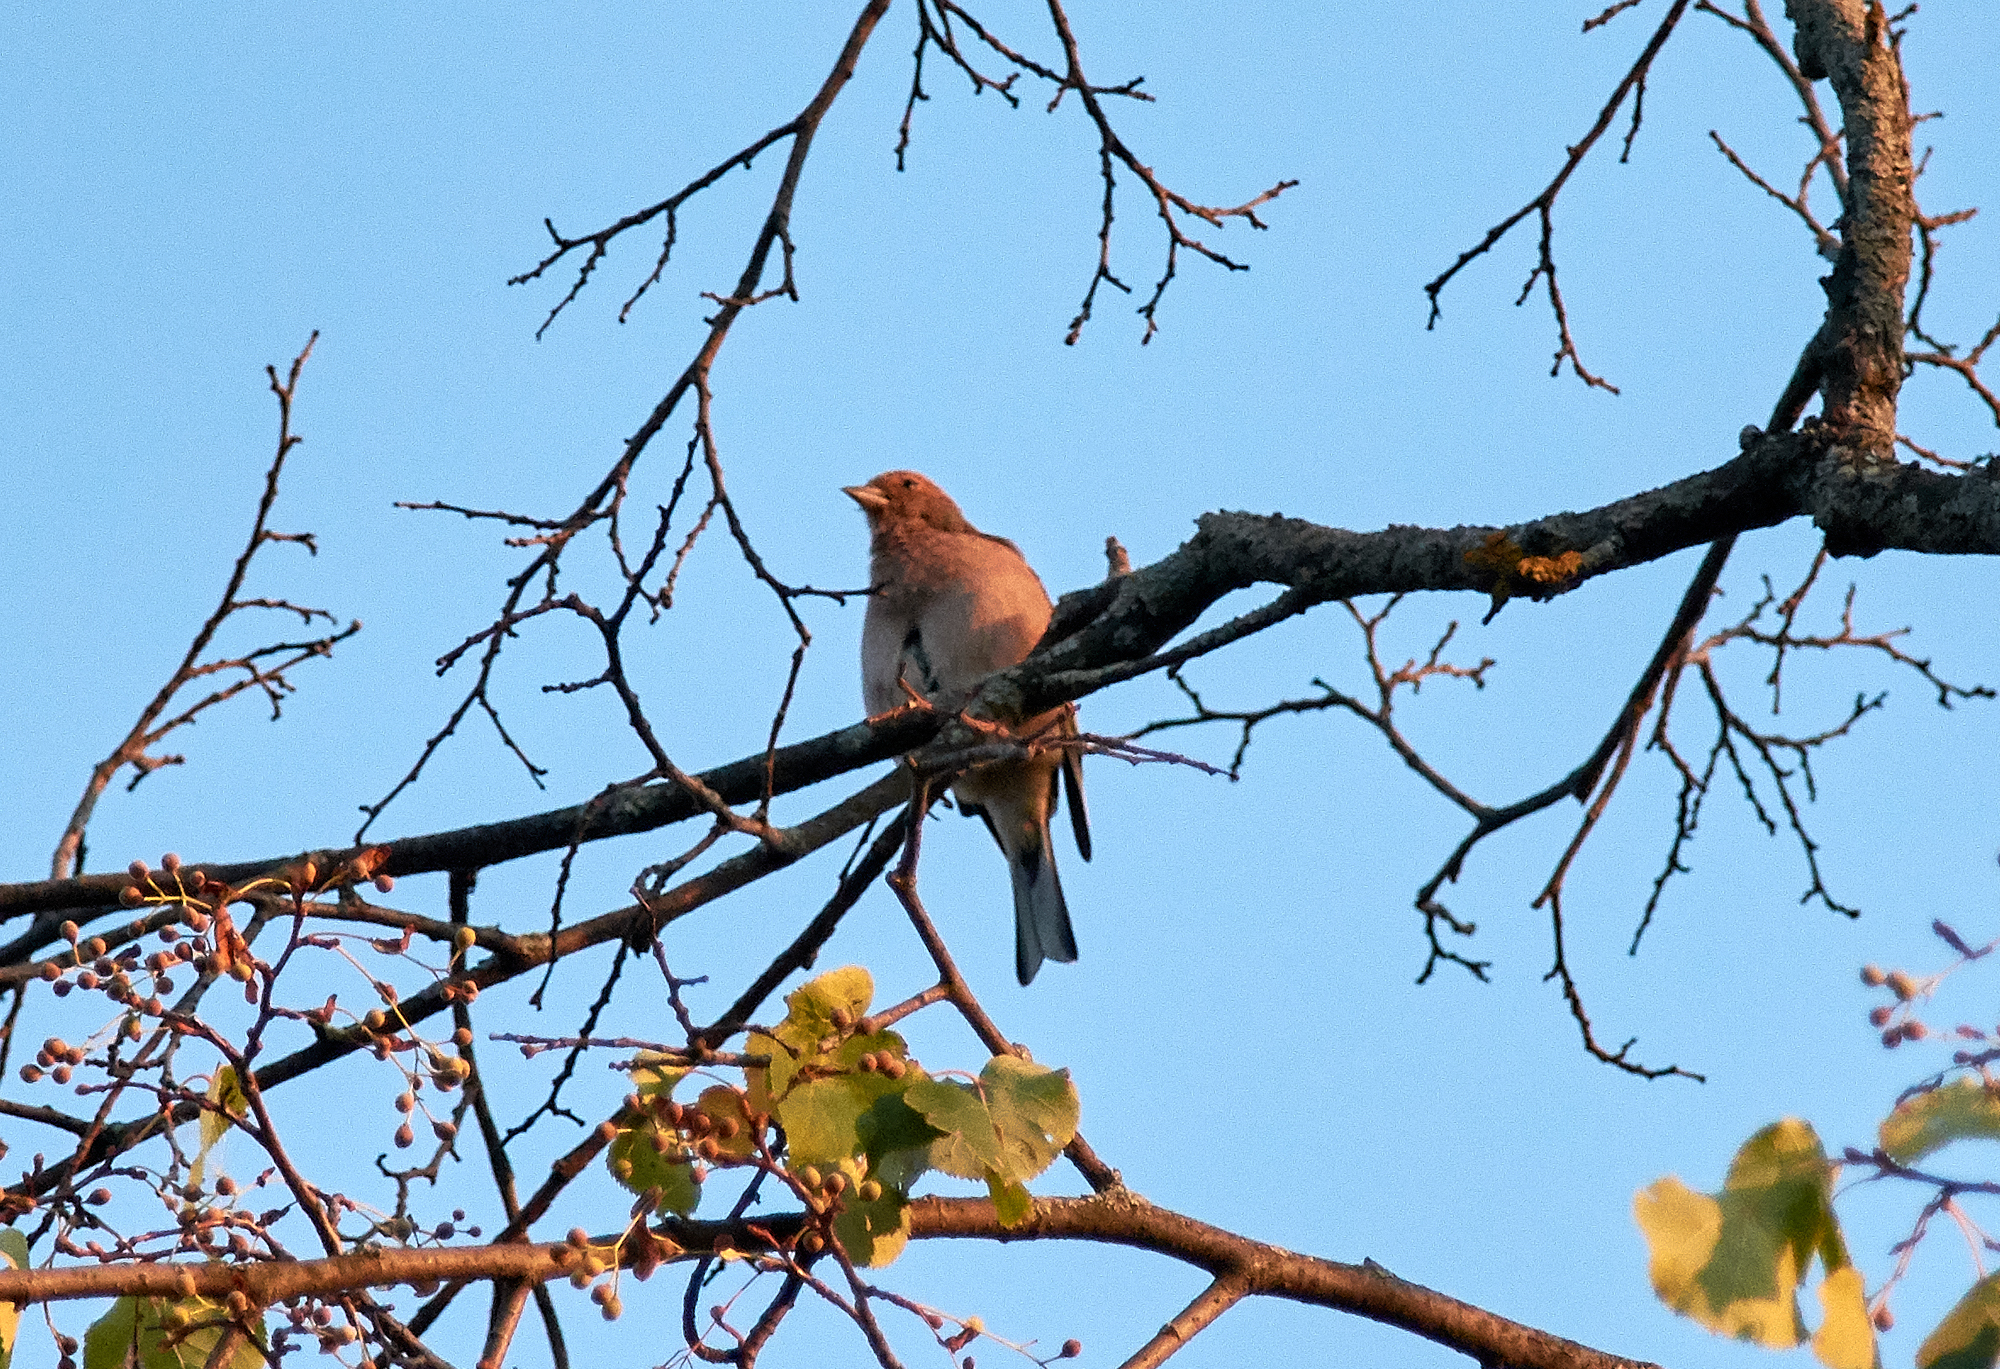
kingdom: Animalia
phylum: Chordata
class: Aves
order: Passeriformes
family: Fringillidae
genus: Fringilla
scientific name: Fringilla coelebs
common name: Common chaffinch
